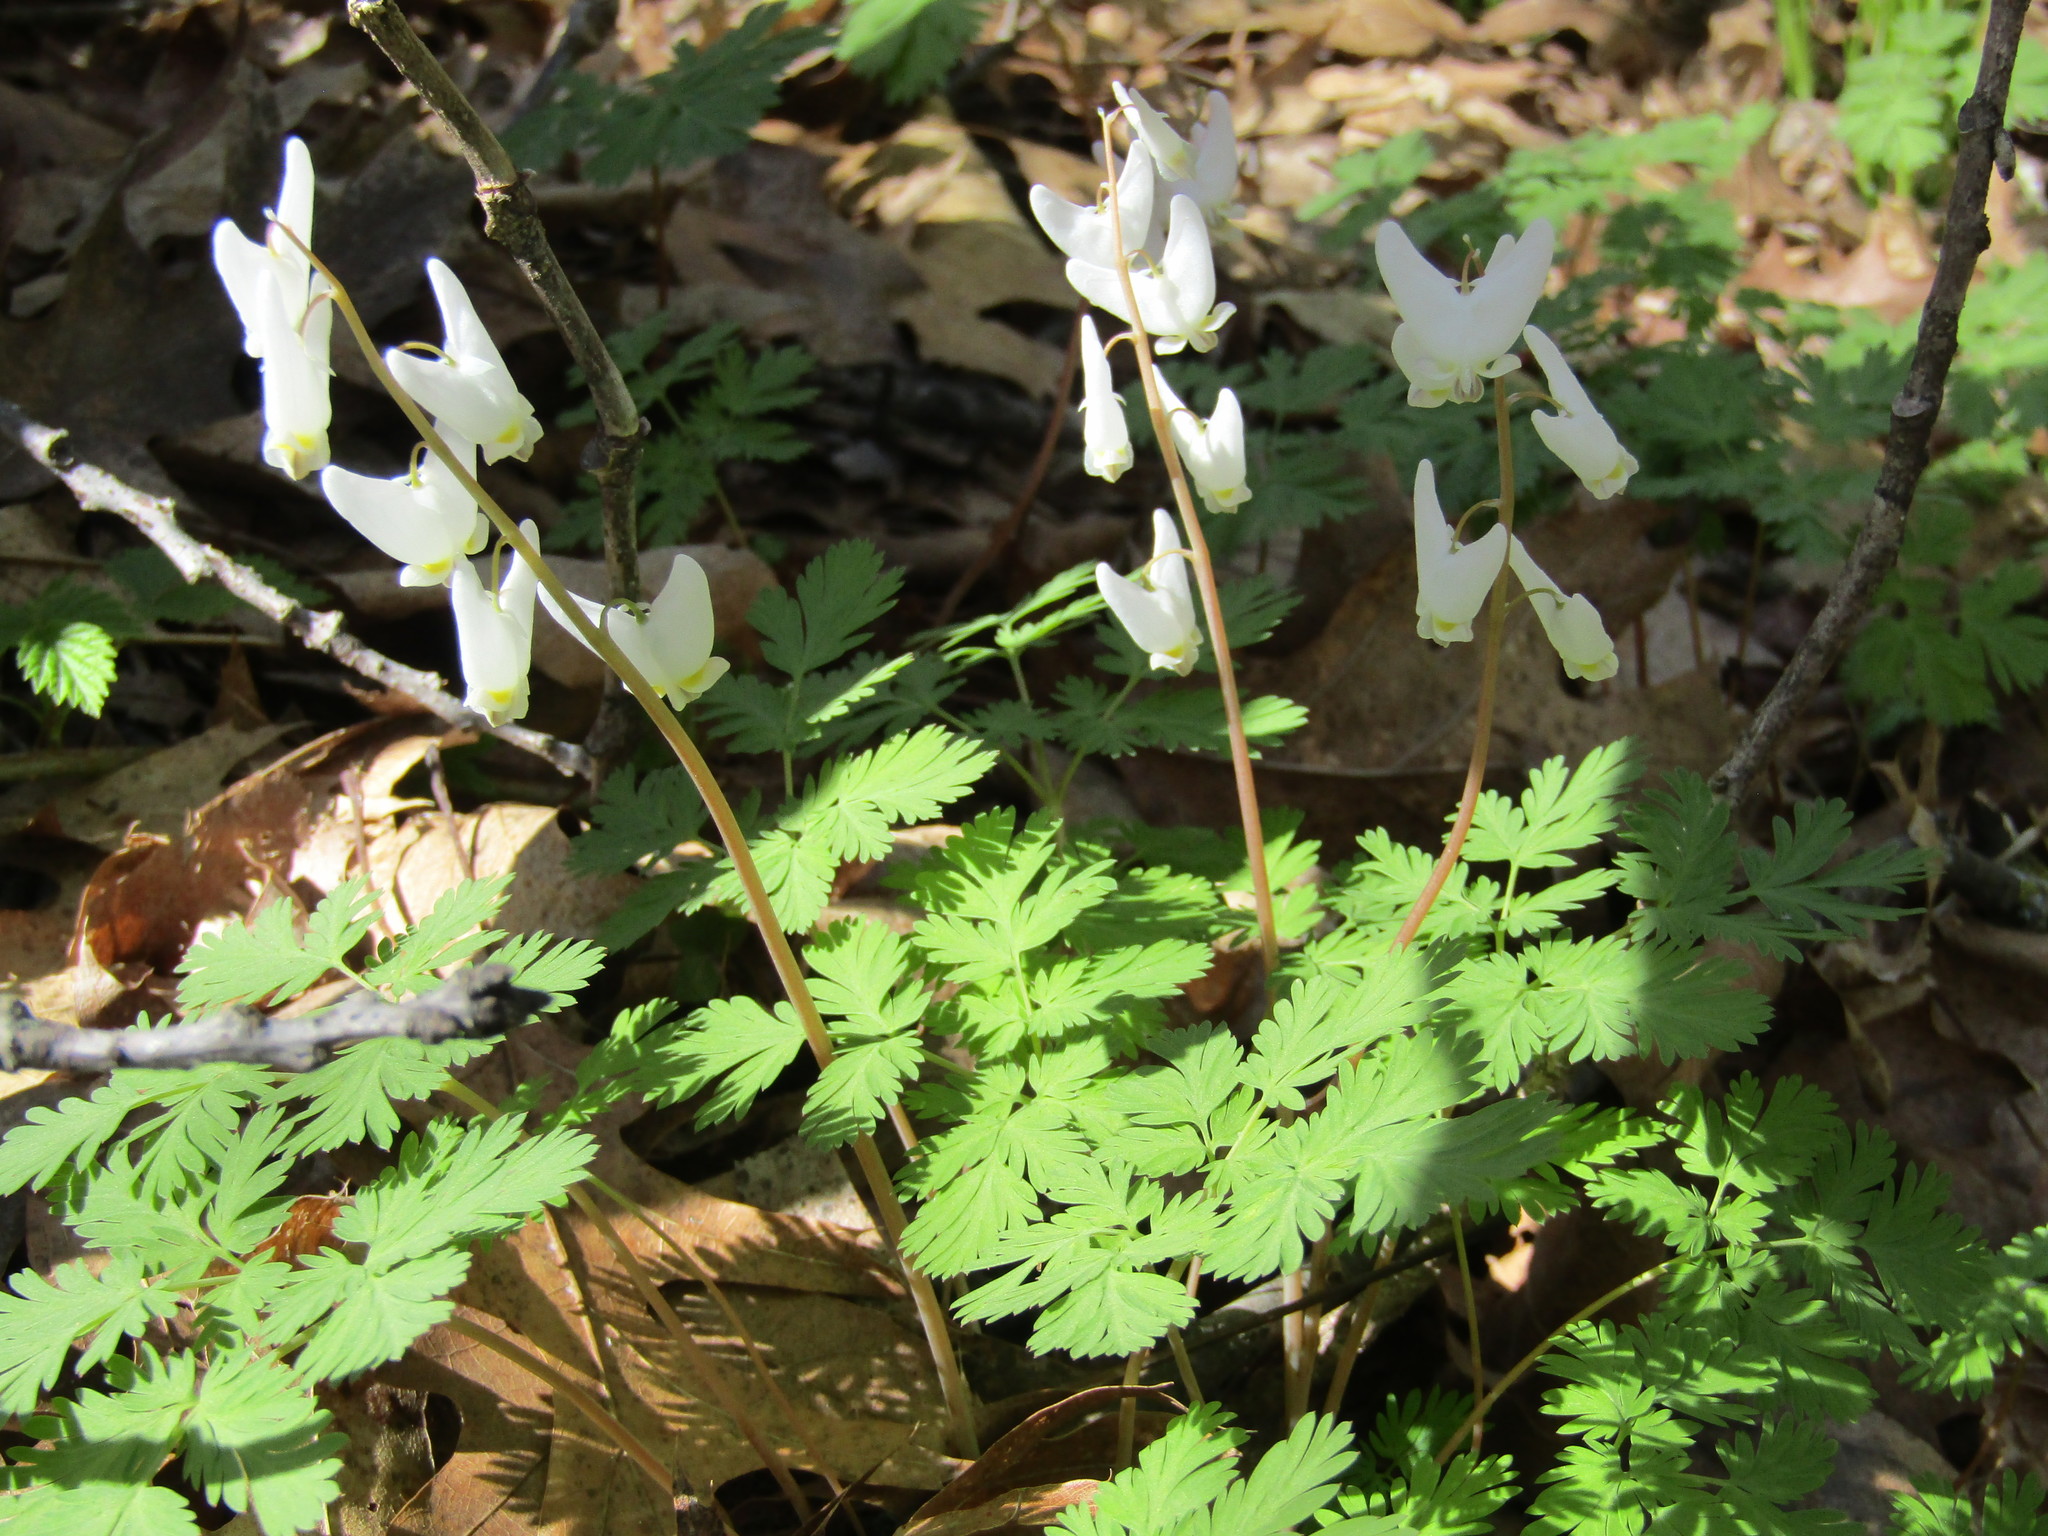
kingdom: Plantae
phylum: Tracheophyta
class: Magnoliopsida
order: Ranunculales
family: Papaveraceae
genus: Dicentra
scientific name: Dicentra cucullaria
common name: Dutchman's breeches
